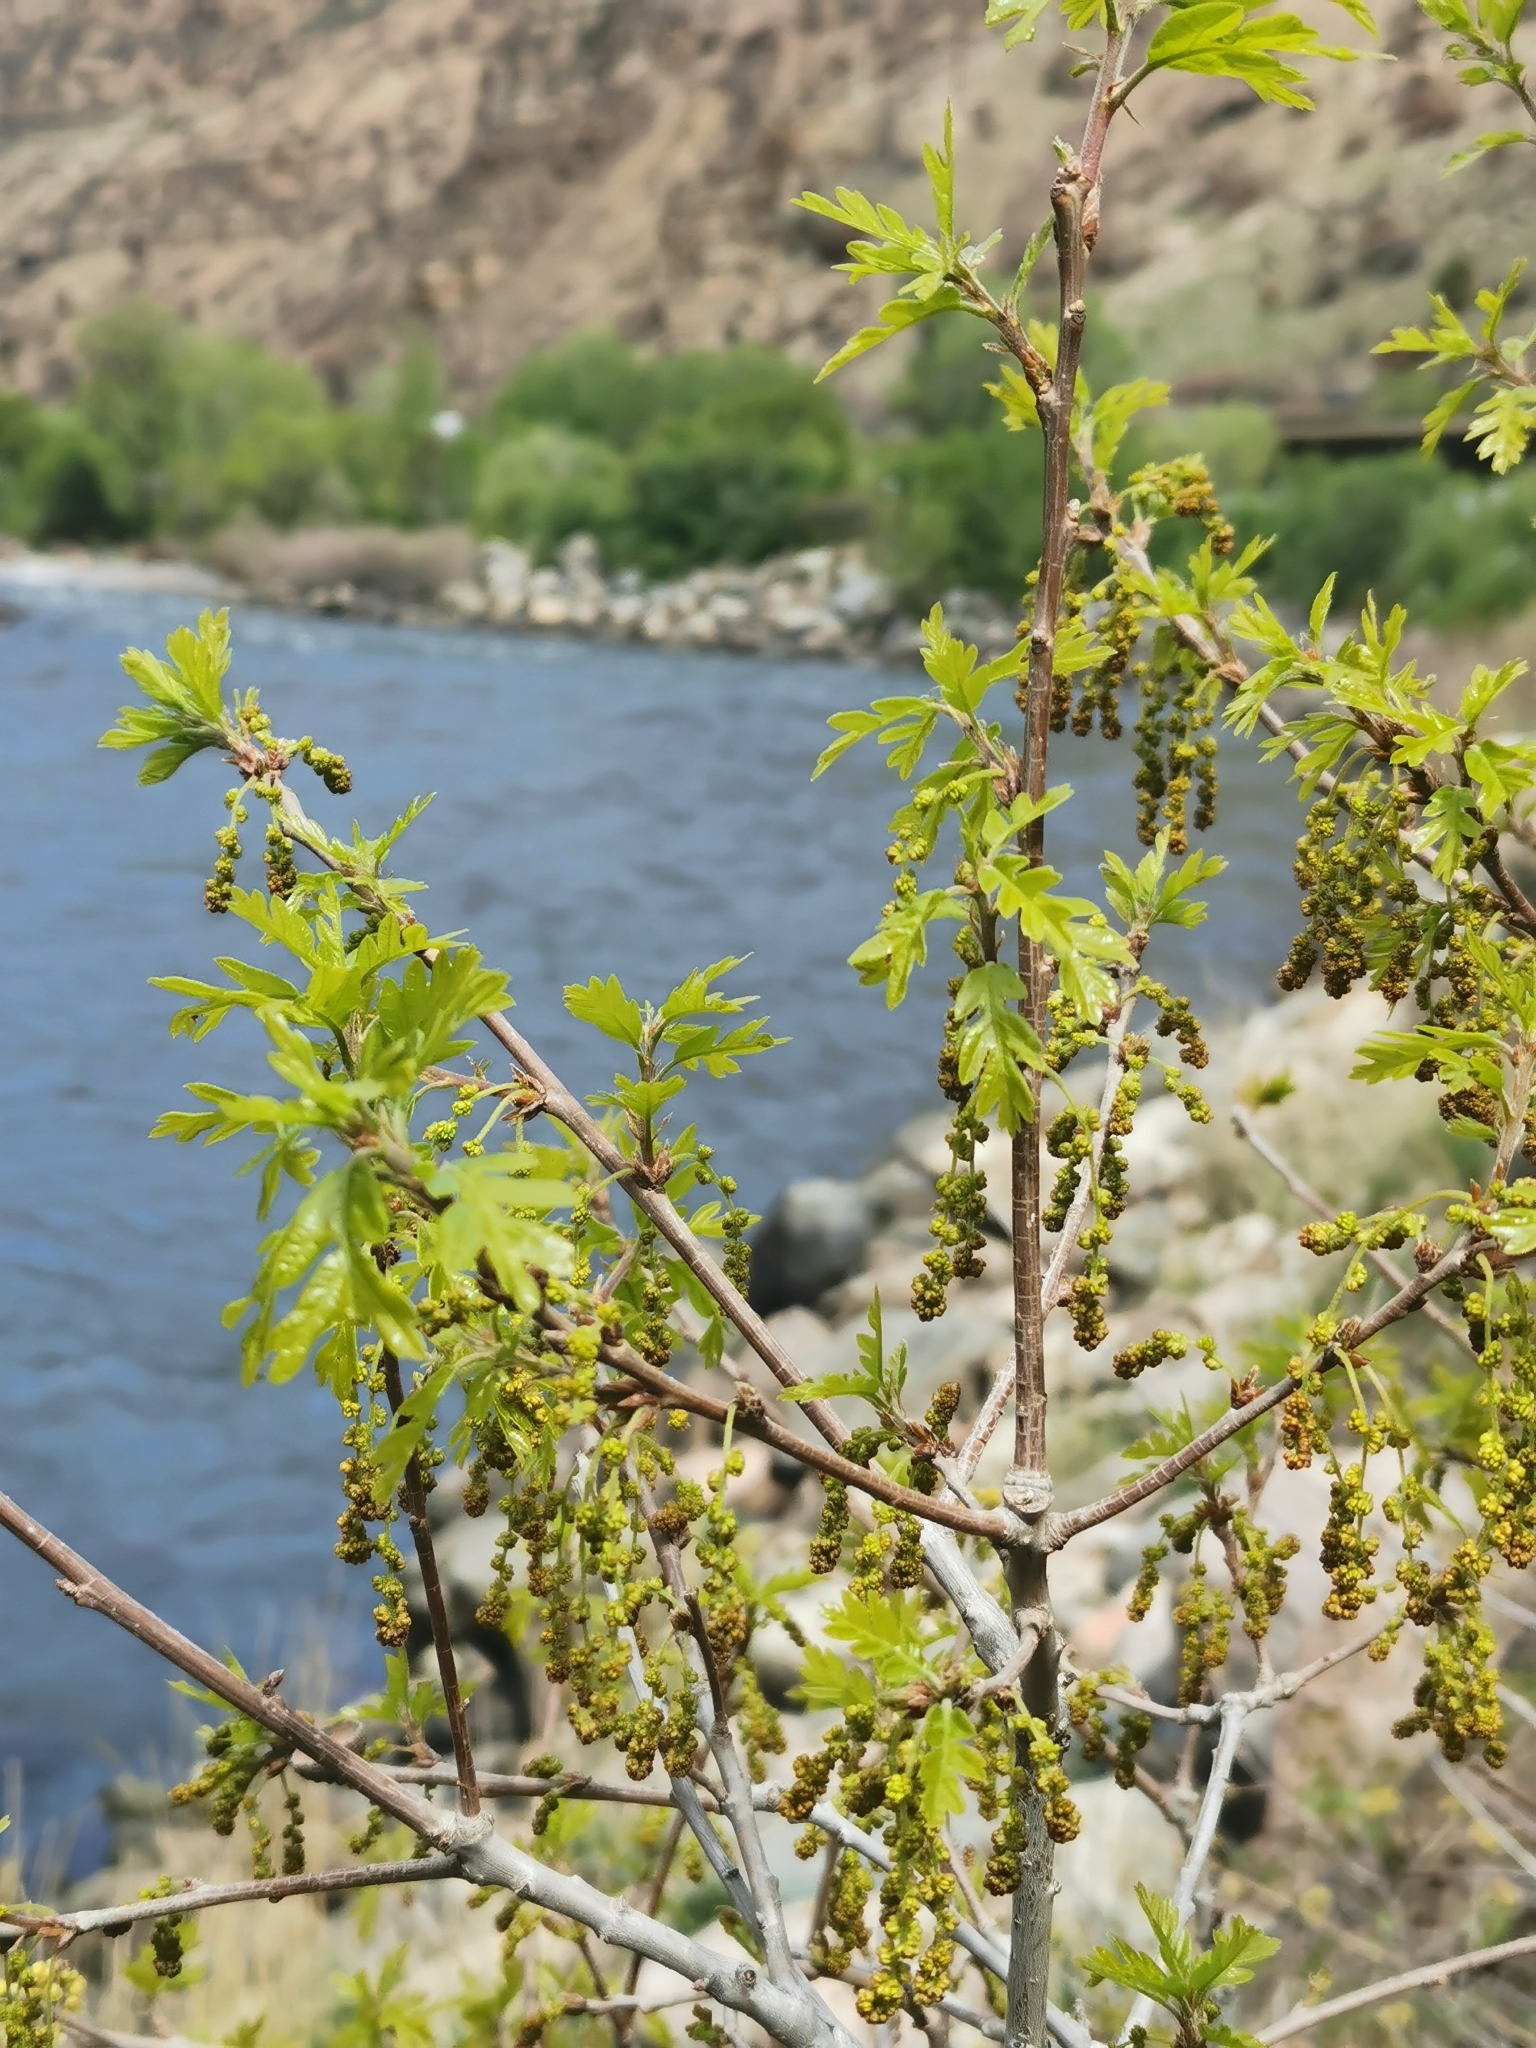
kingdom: Plantae
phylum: Tracheophyta
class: Magnoliopsida
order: Fagales
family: Fagaceae
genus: Quercus
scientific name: Quercus gambelii
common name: Gambel oak
